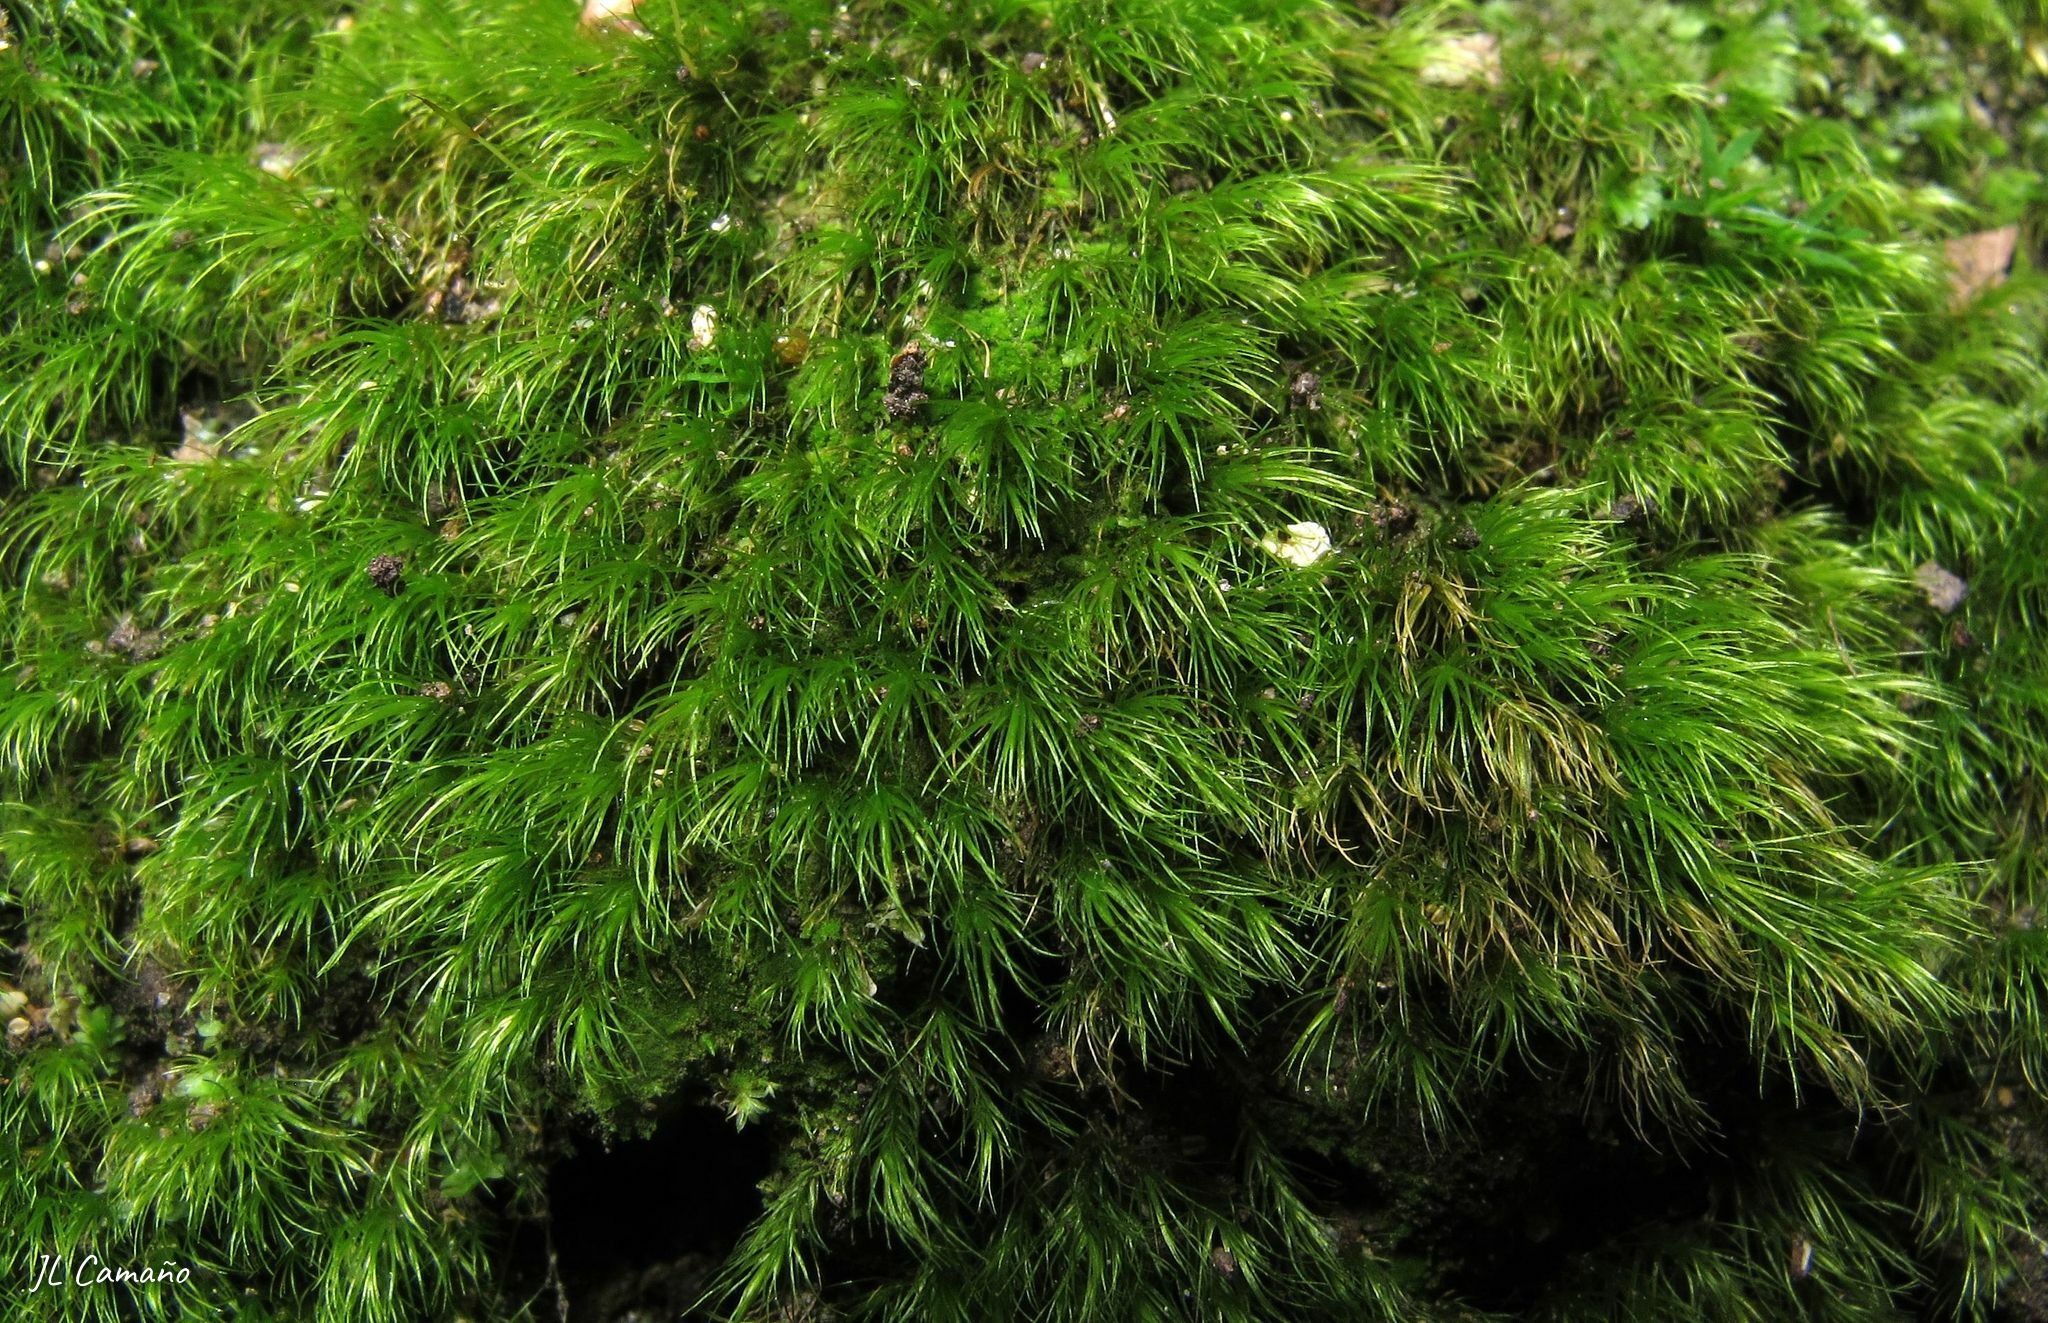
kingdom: Plantae
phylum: Bryophyta
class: Bryopsida
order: Dicranales
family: Dicranellaceae
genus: Dicranella
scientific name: Dicranella heteromalla
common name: Silky forklet moss
